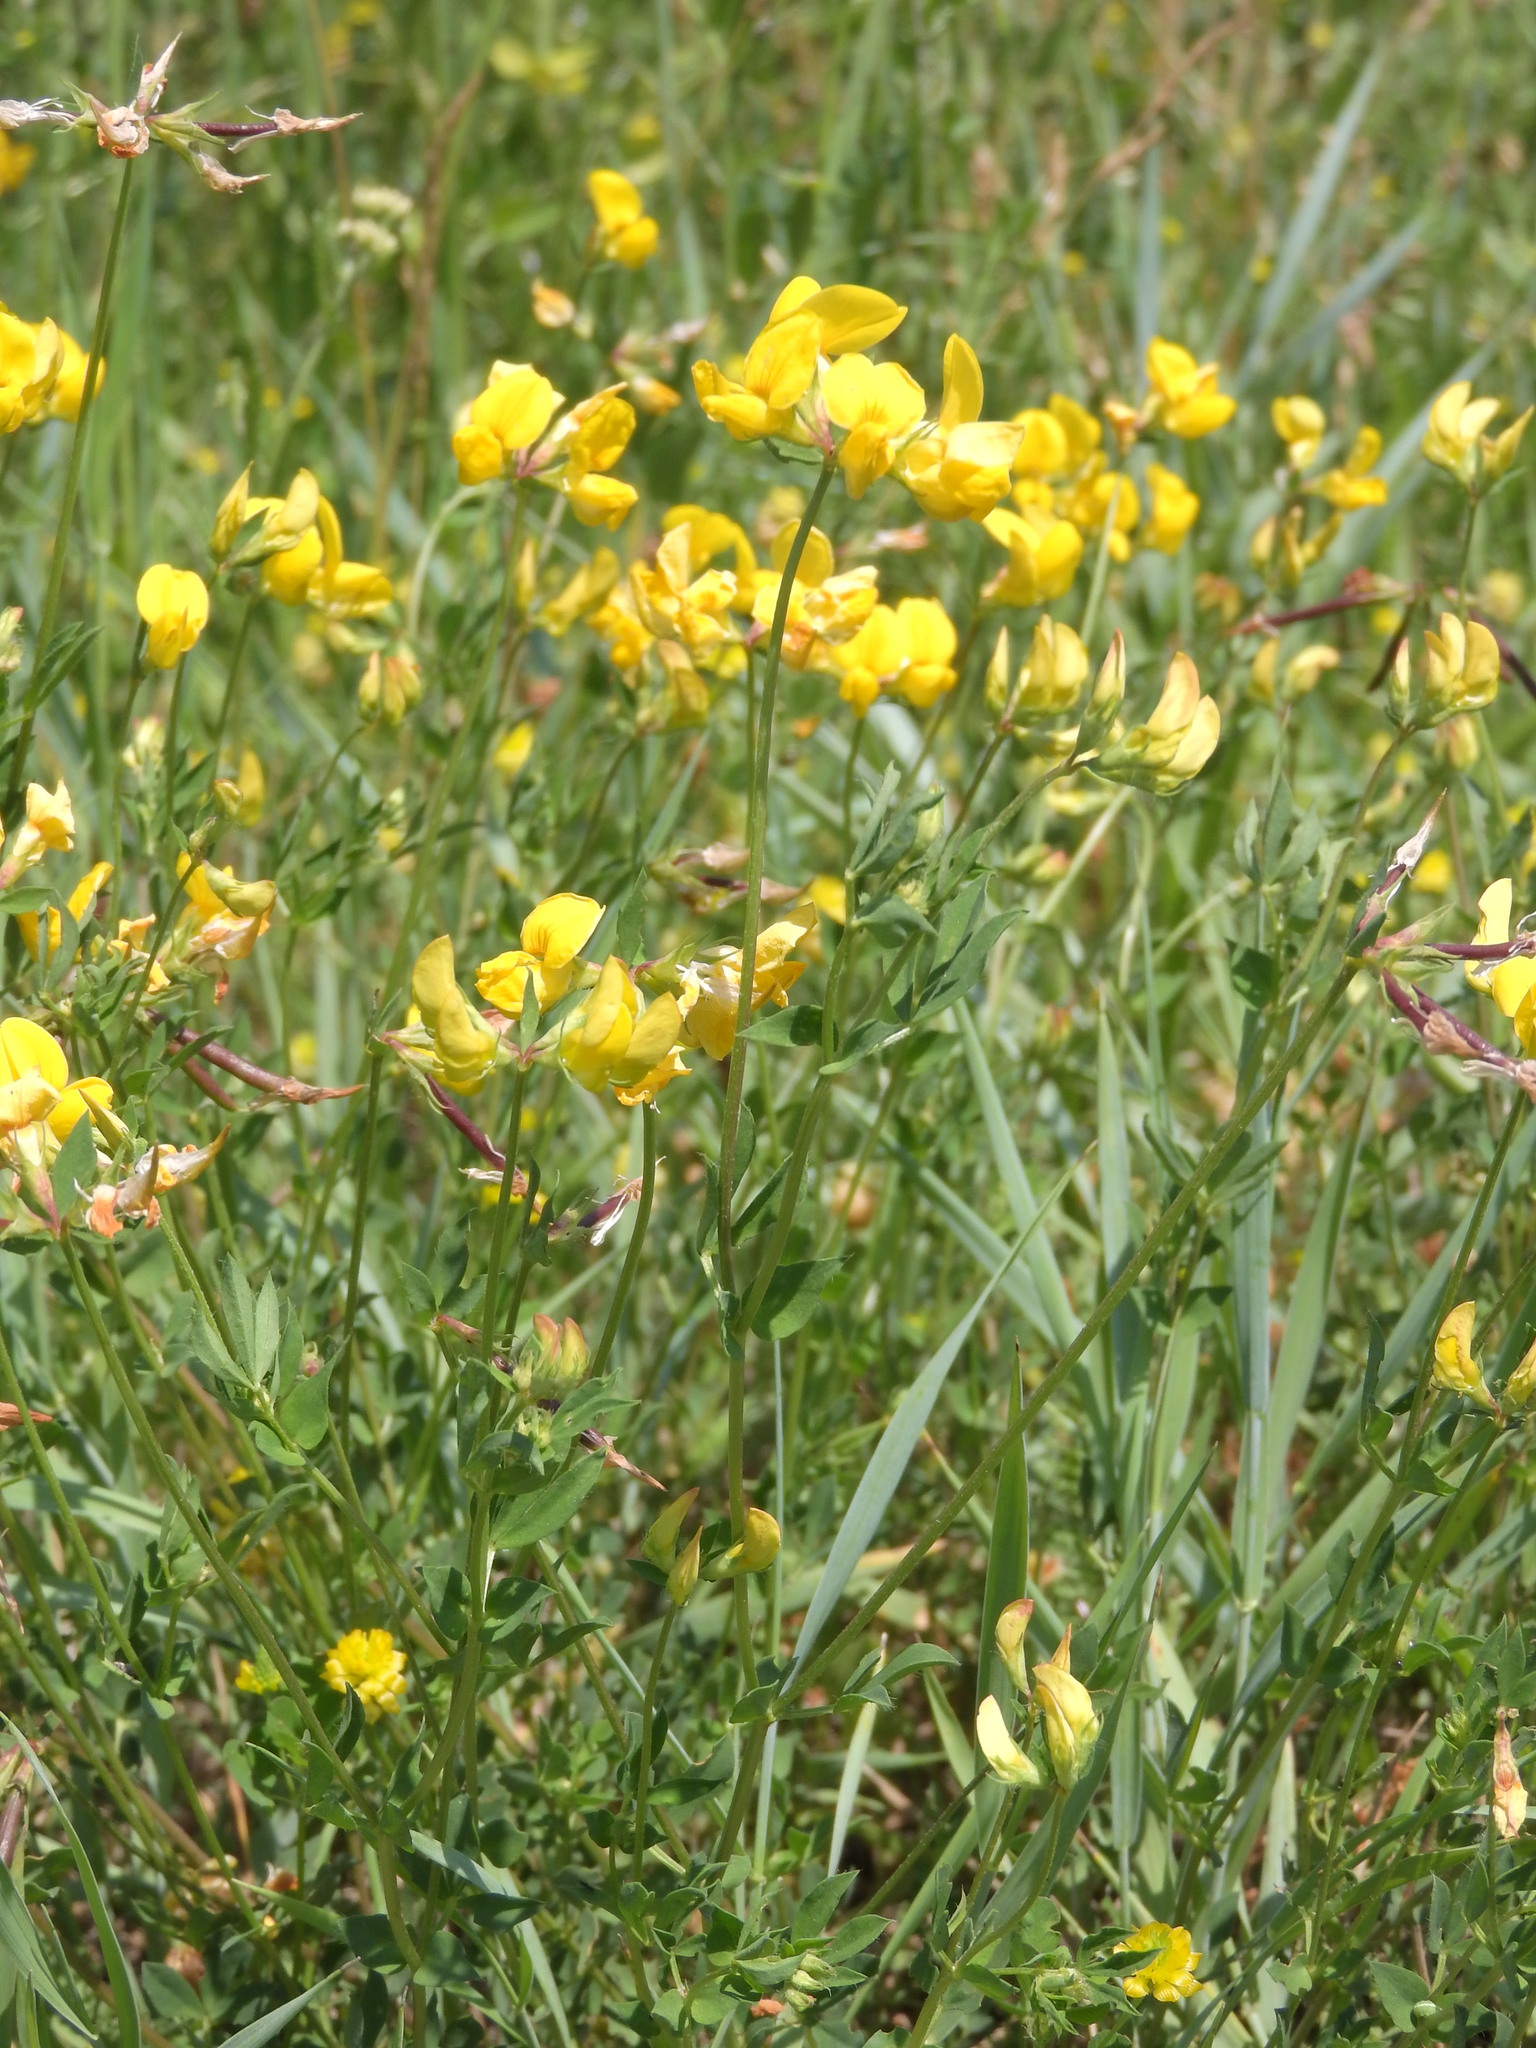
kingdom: Plantae
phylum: Tracheophyta
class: Magnoliopsida
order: Fabales
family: Fabaceae
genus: Lotus
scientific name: Lotus corniculatus
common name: Common bird's-foot-trefoil
